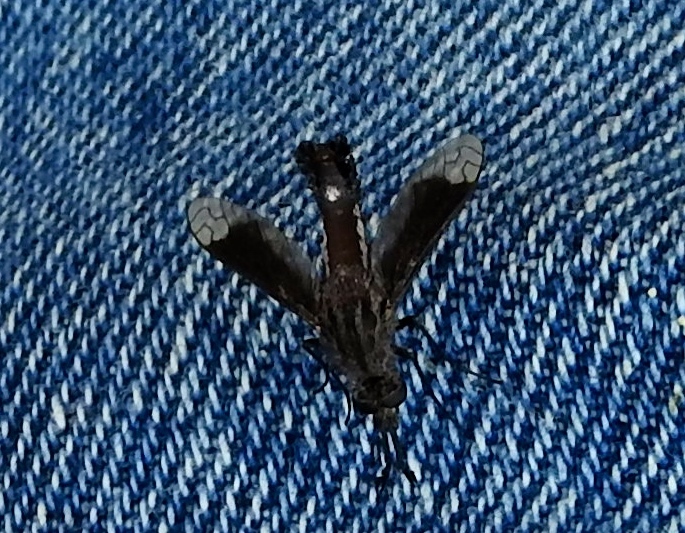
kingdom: Animalia
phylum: Arthropoda
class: Insecta
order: Diptera
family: Bombyliidae
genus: Lepidophora
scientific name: Lepidophora vetusta
